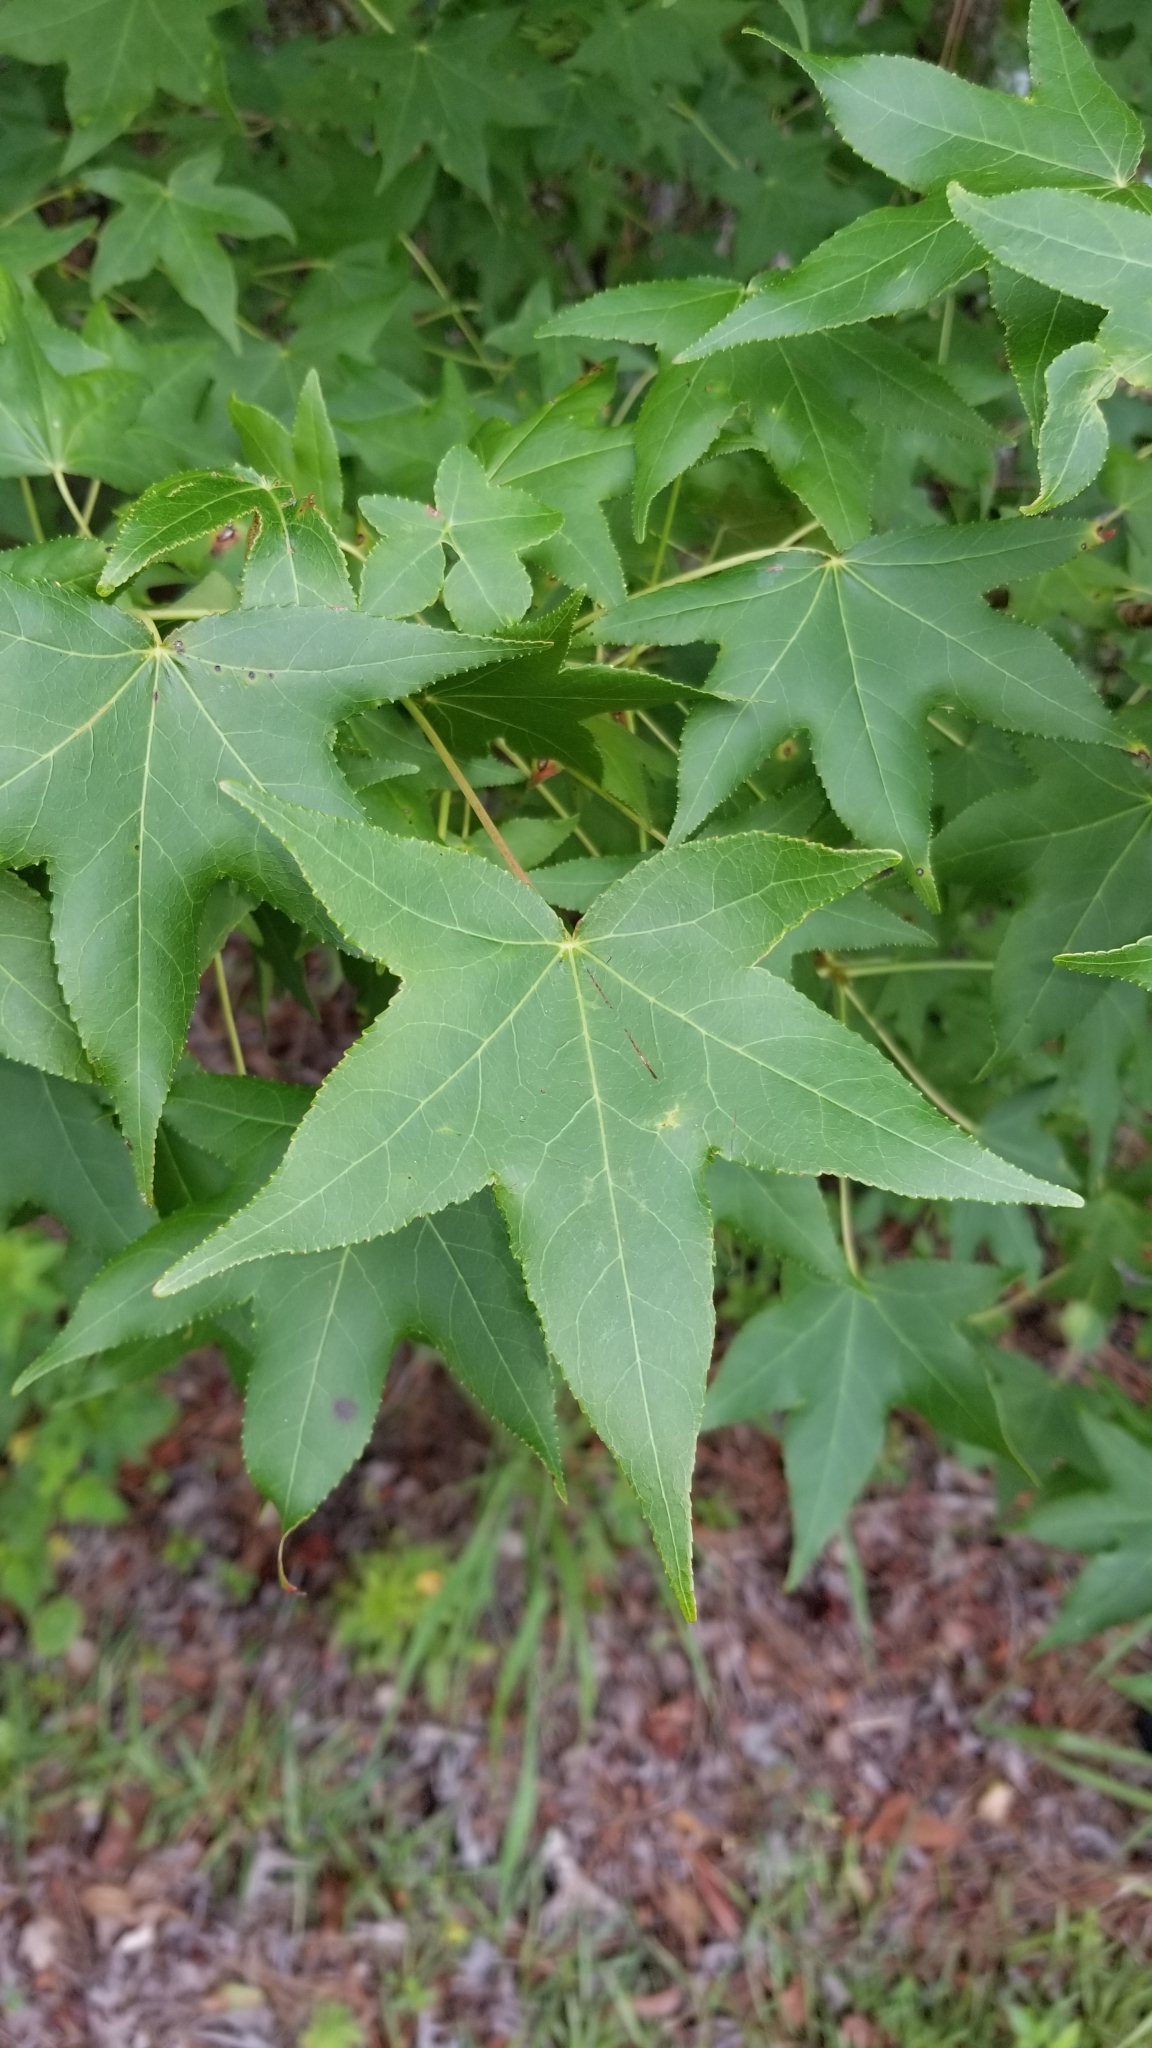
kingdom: Plantae
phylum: Tracheophyta
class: Magnoliopsida
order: Saxifragales
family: Altingiaceae
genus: Liquidambar
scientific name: Liquidambar styraciflua
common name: Sweet gum
